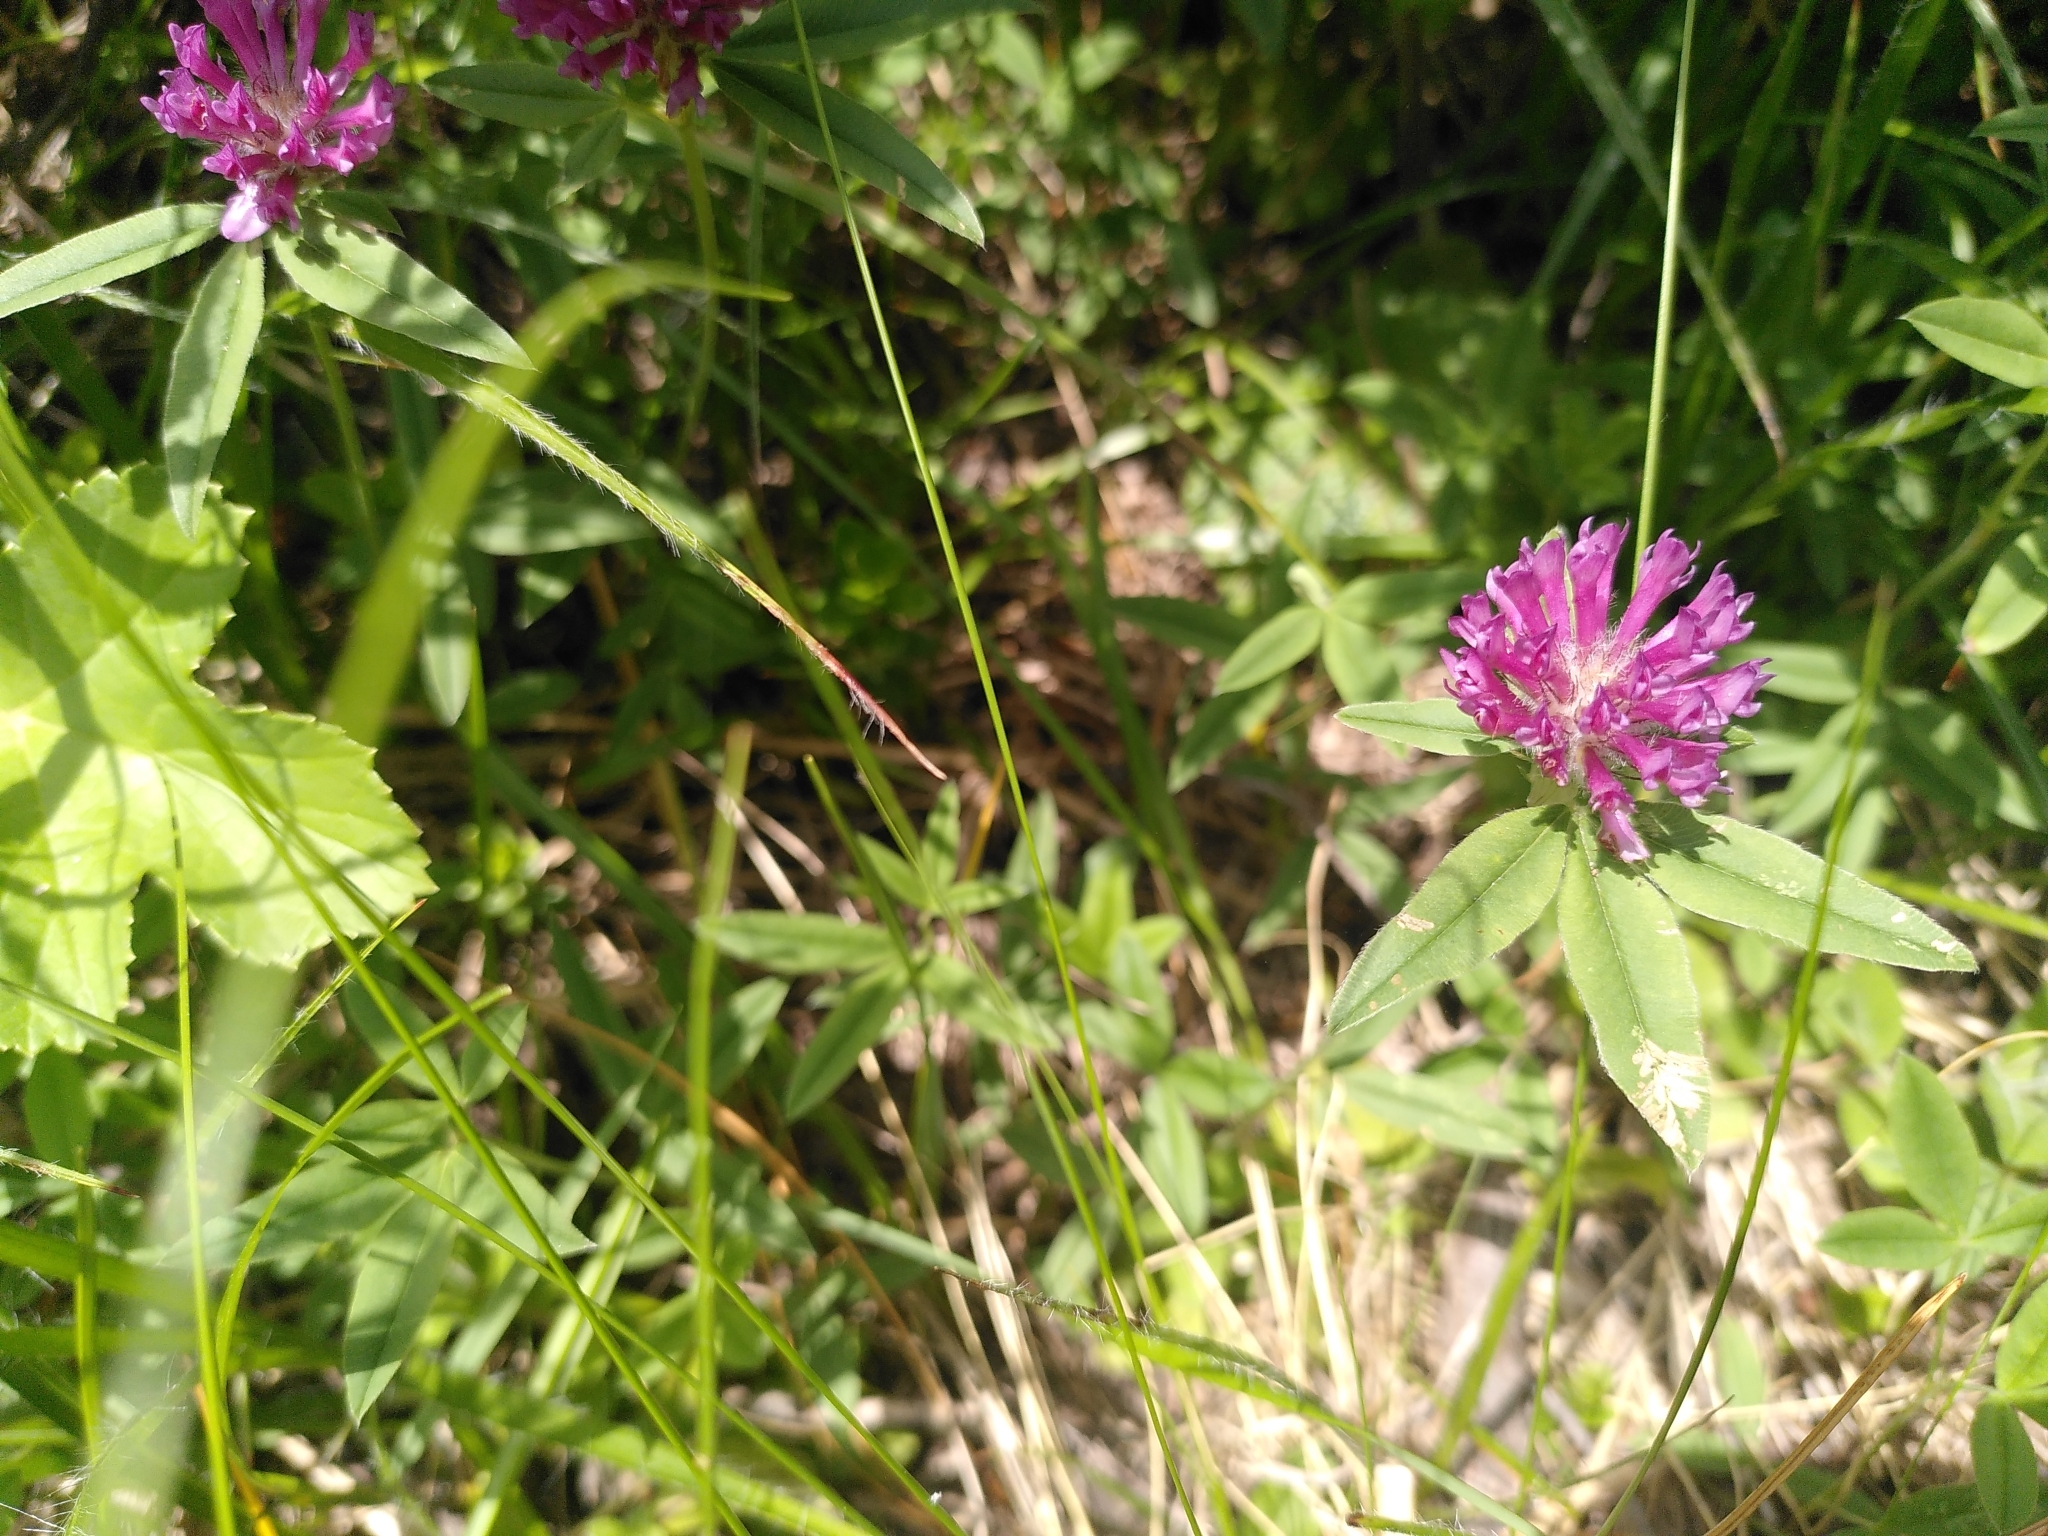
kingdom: Plantae
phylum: Tracheophyta
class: Magnoliopsida
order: Fabales
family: Fabaceae
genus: Trifolium
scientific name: Trifolium alpestre
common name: Owl-head clover
